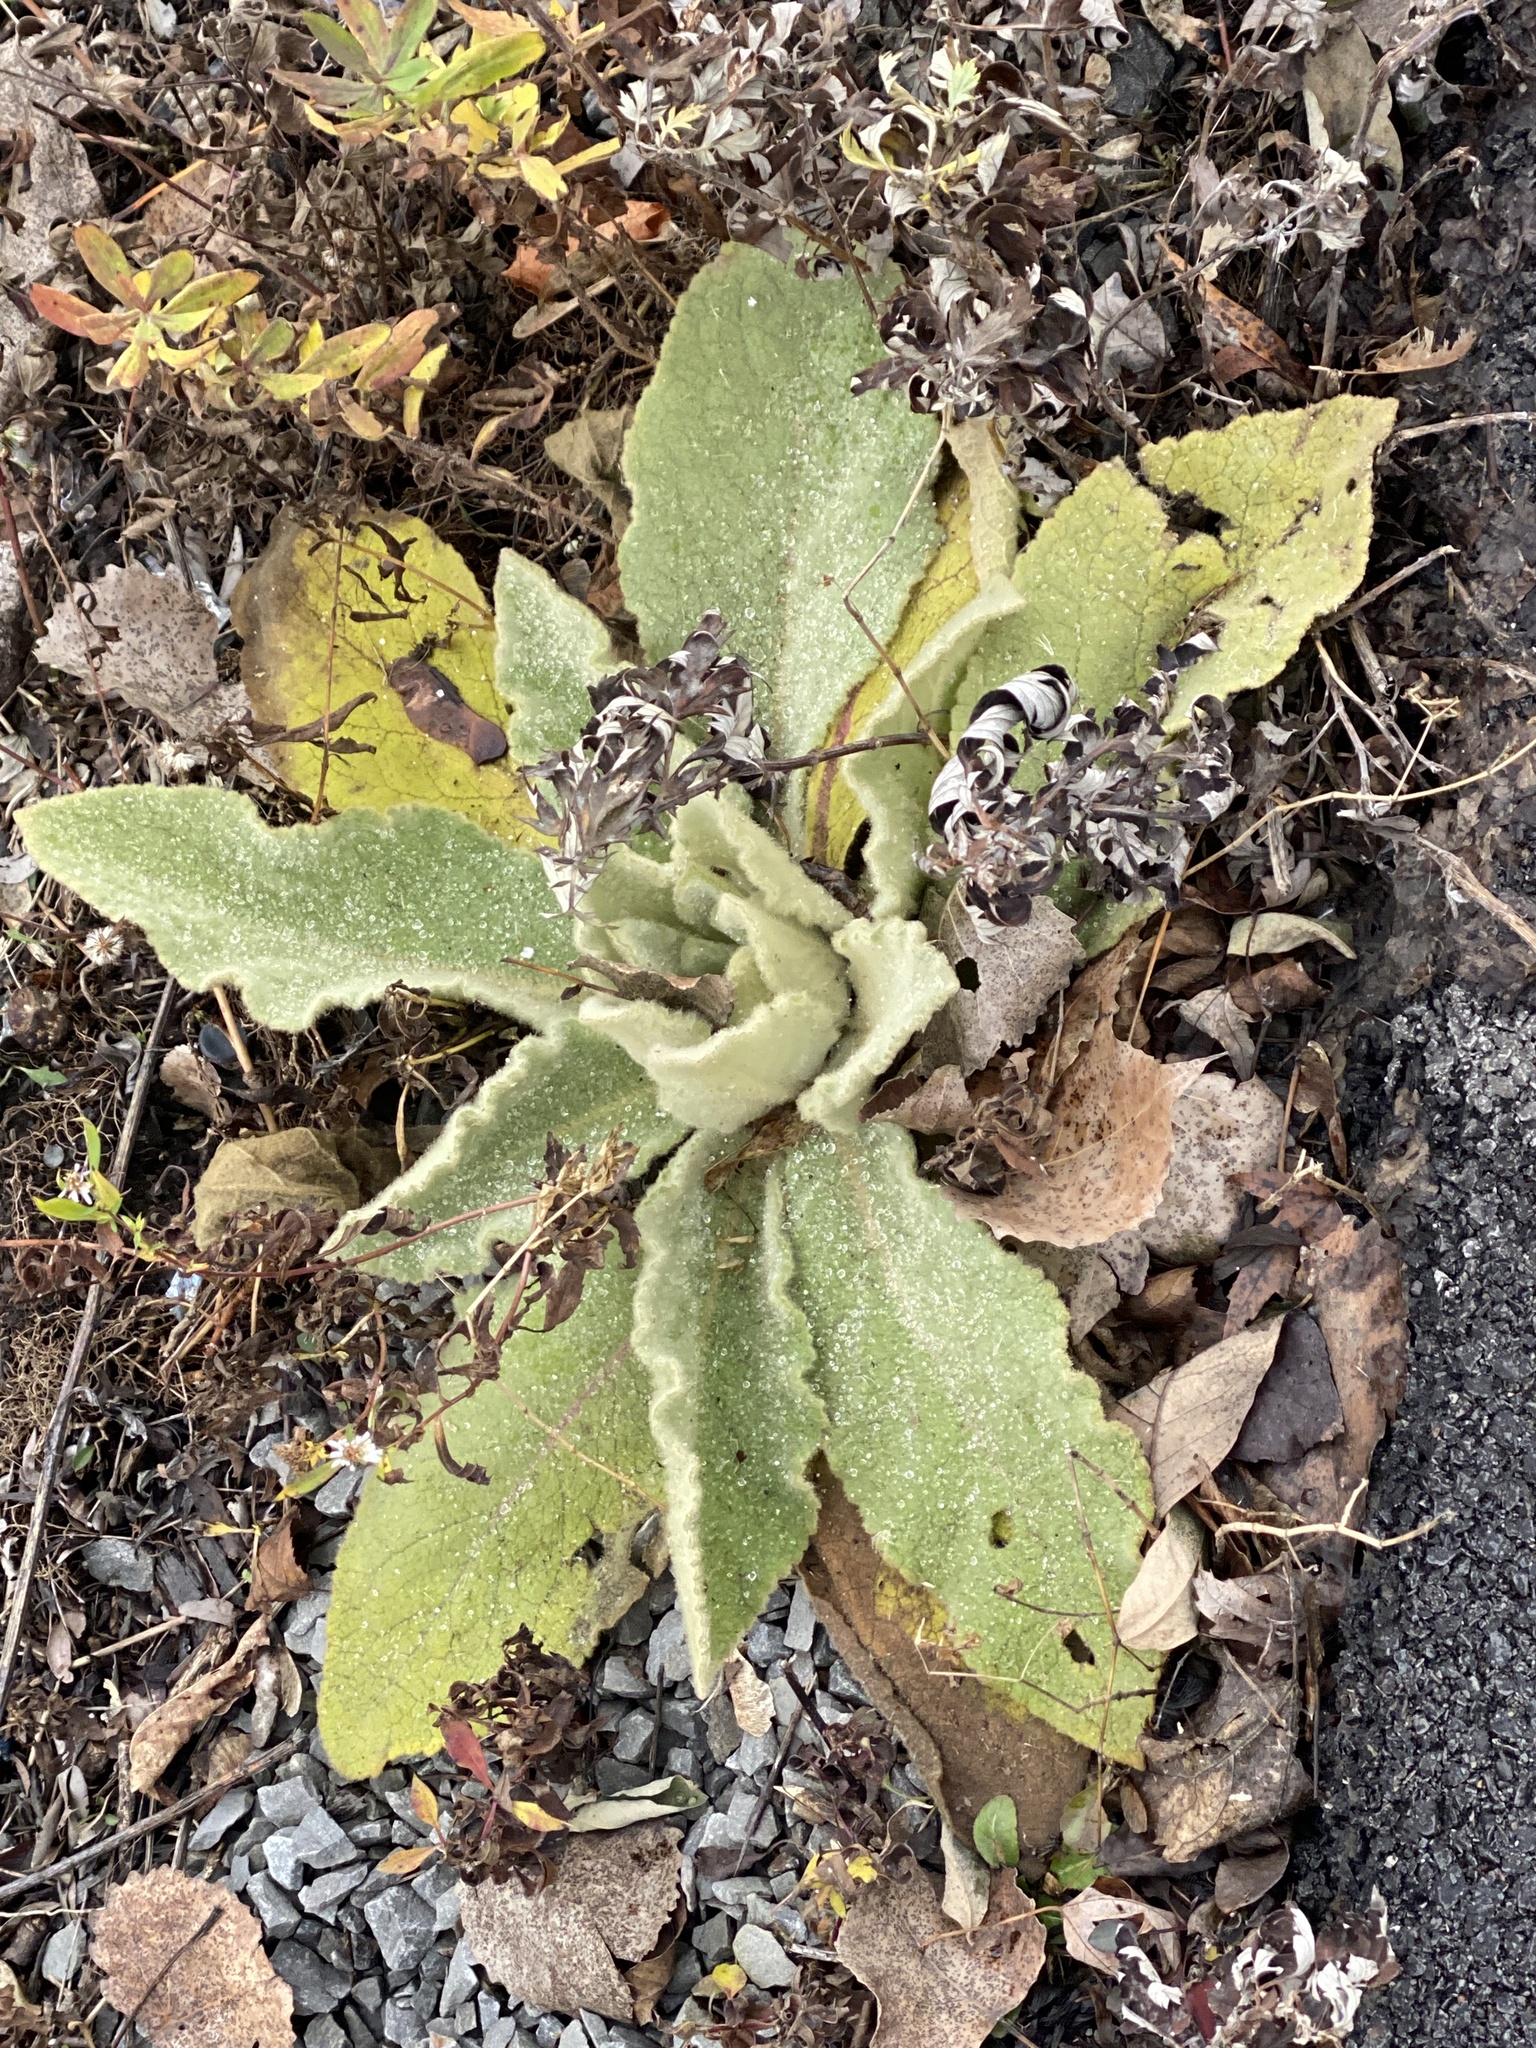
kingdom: Plantae
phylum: Tracheophyta
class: Magnoliopsida
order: Lamiales
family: Scrophulariaceae
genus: Verbascum
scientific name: Verbascum thapsus
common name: Common mullein
